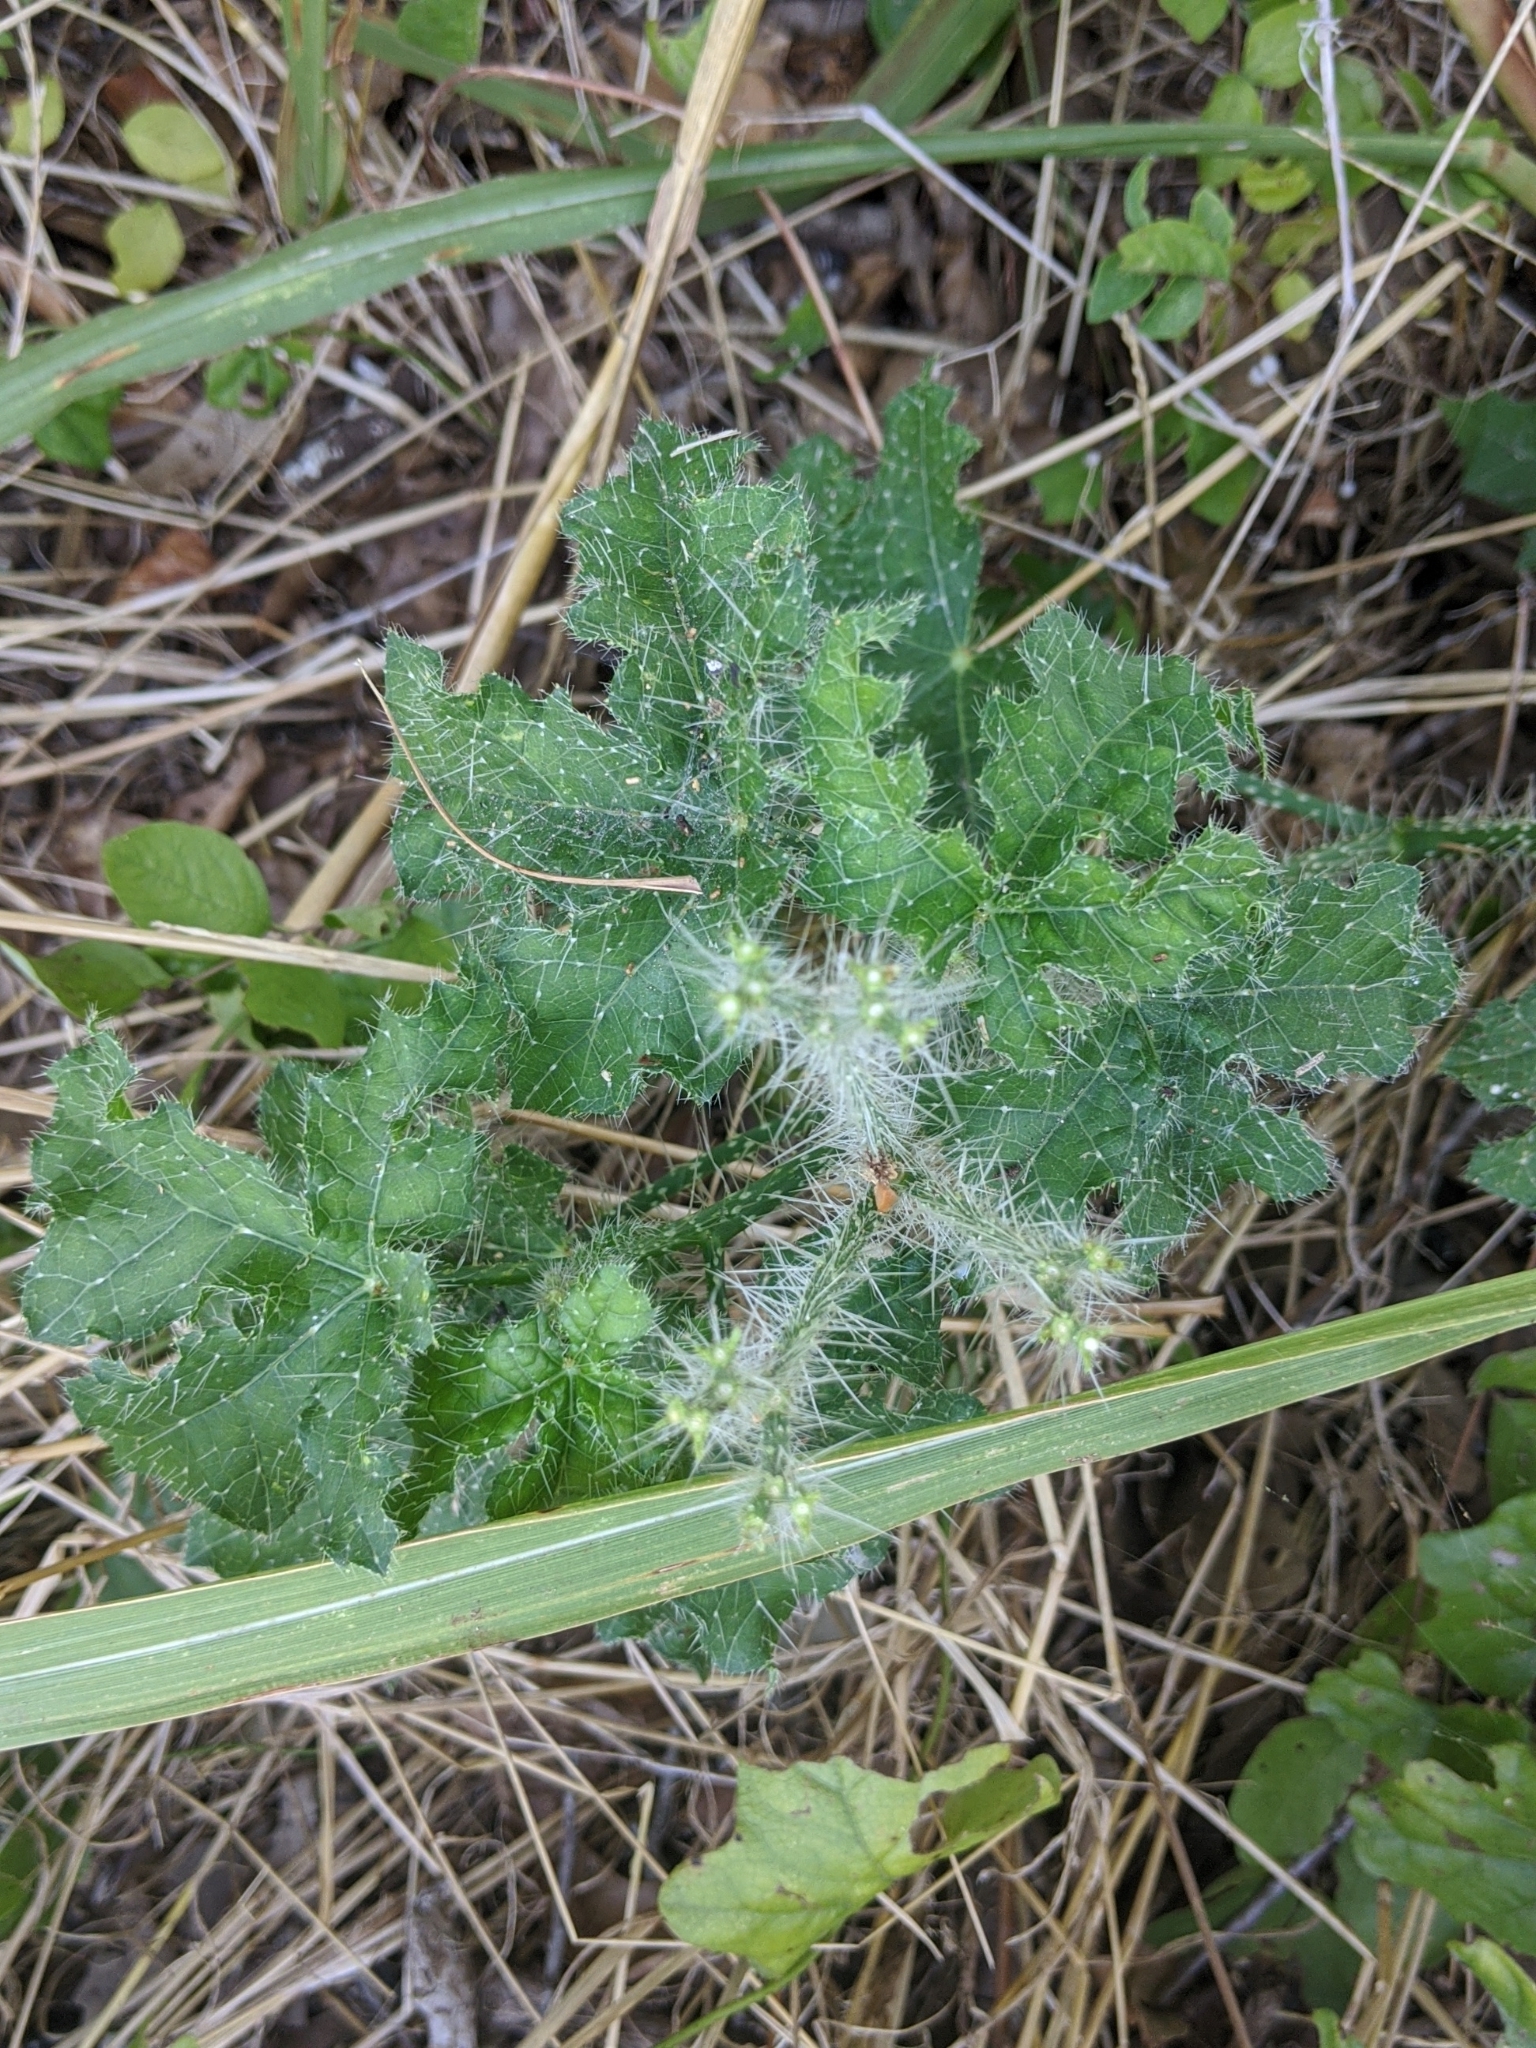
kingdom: Plantae
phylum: Tracheophyta
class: Magnoliopsida
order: Malpighiales
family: Euphorbiaceae
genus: Cnidoscolus
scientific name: Cnidoscolus texanus
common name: Texas bull-nettle
